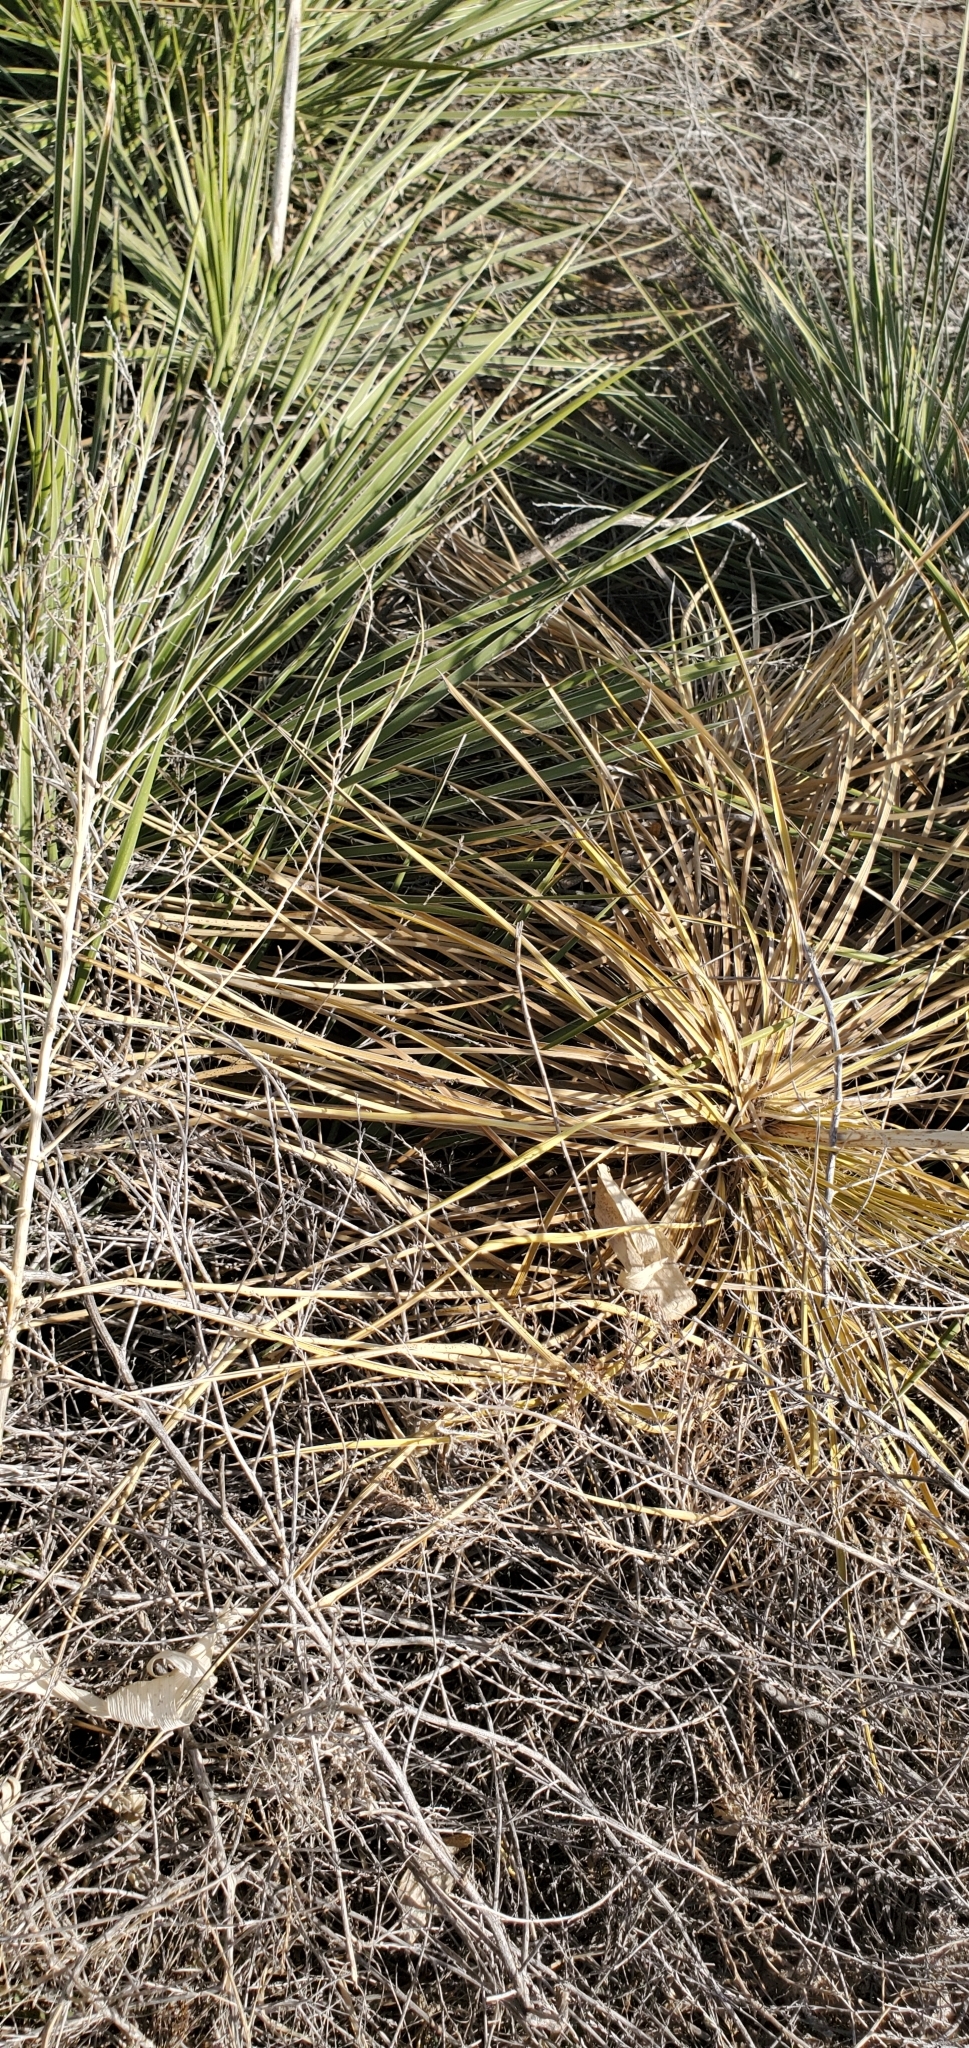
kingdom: Plantae
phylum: Tracheophyta
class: Liliopsida
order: Asparagales
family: Asparagaceae
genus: Yucca
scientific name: Yucca glauca
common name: Great plains yucca
